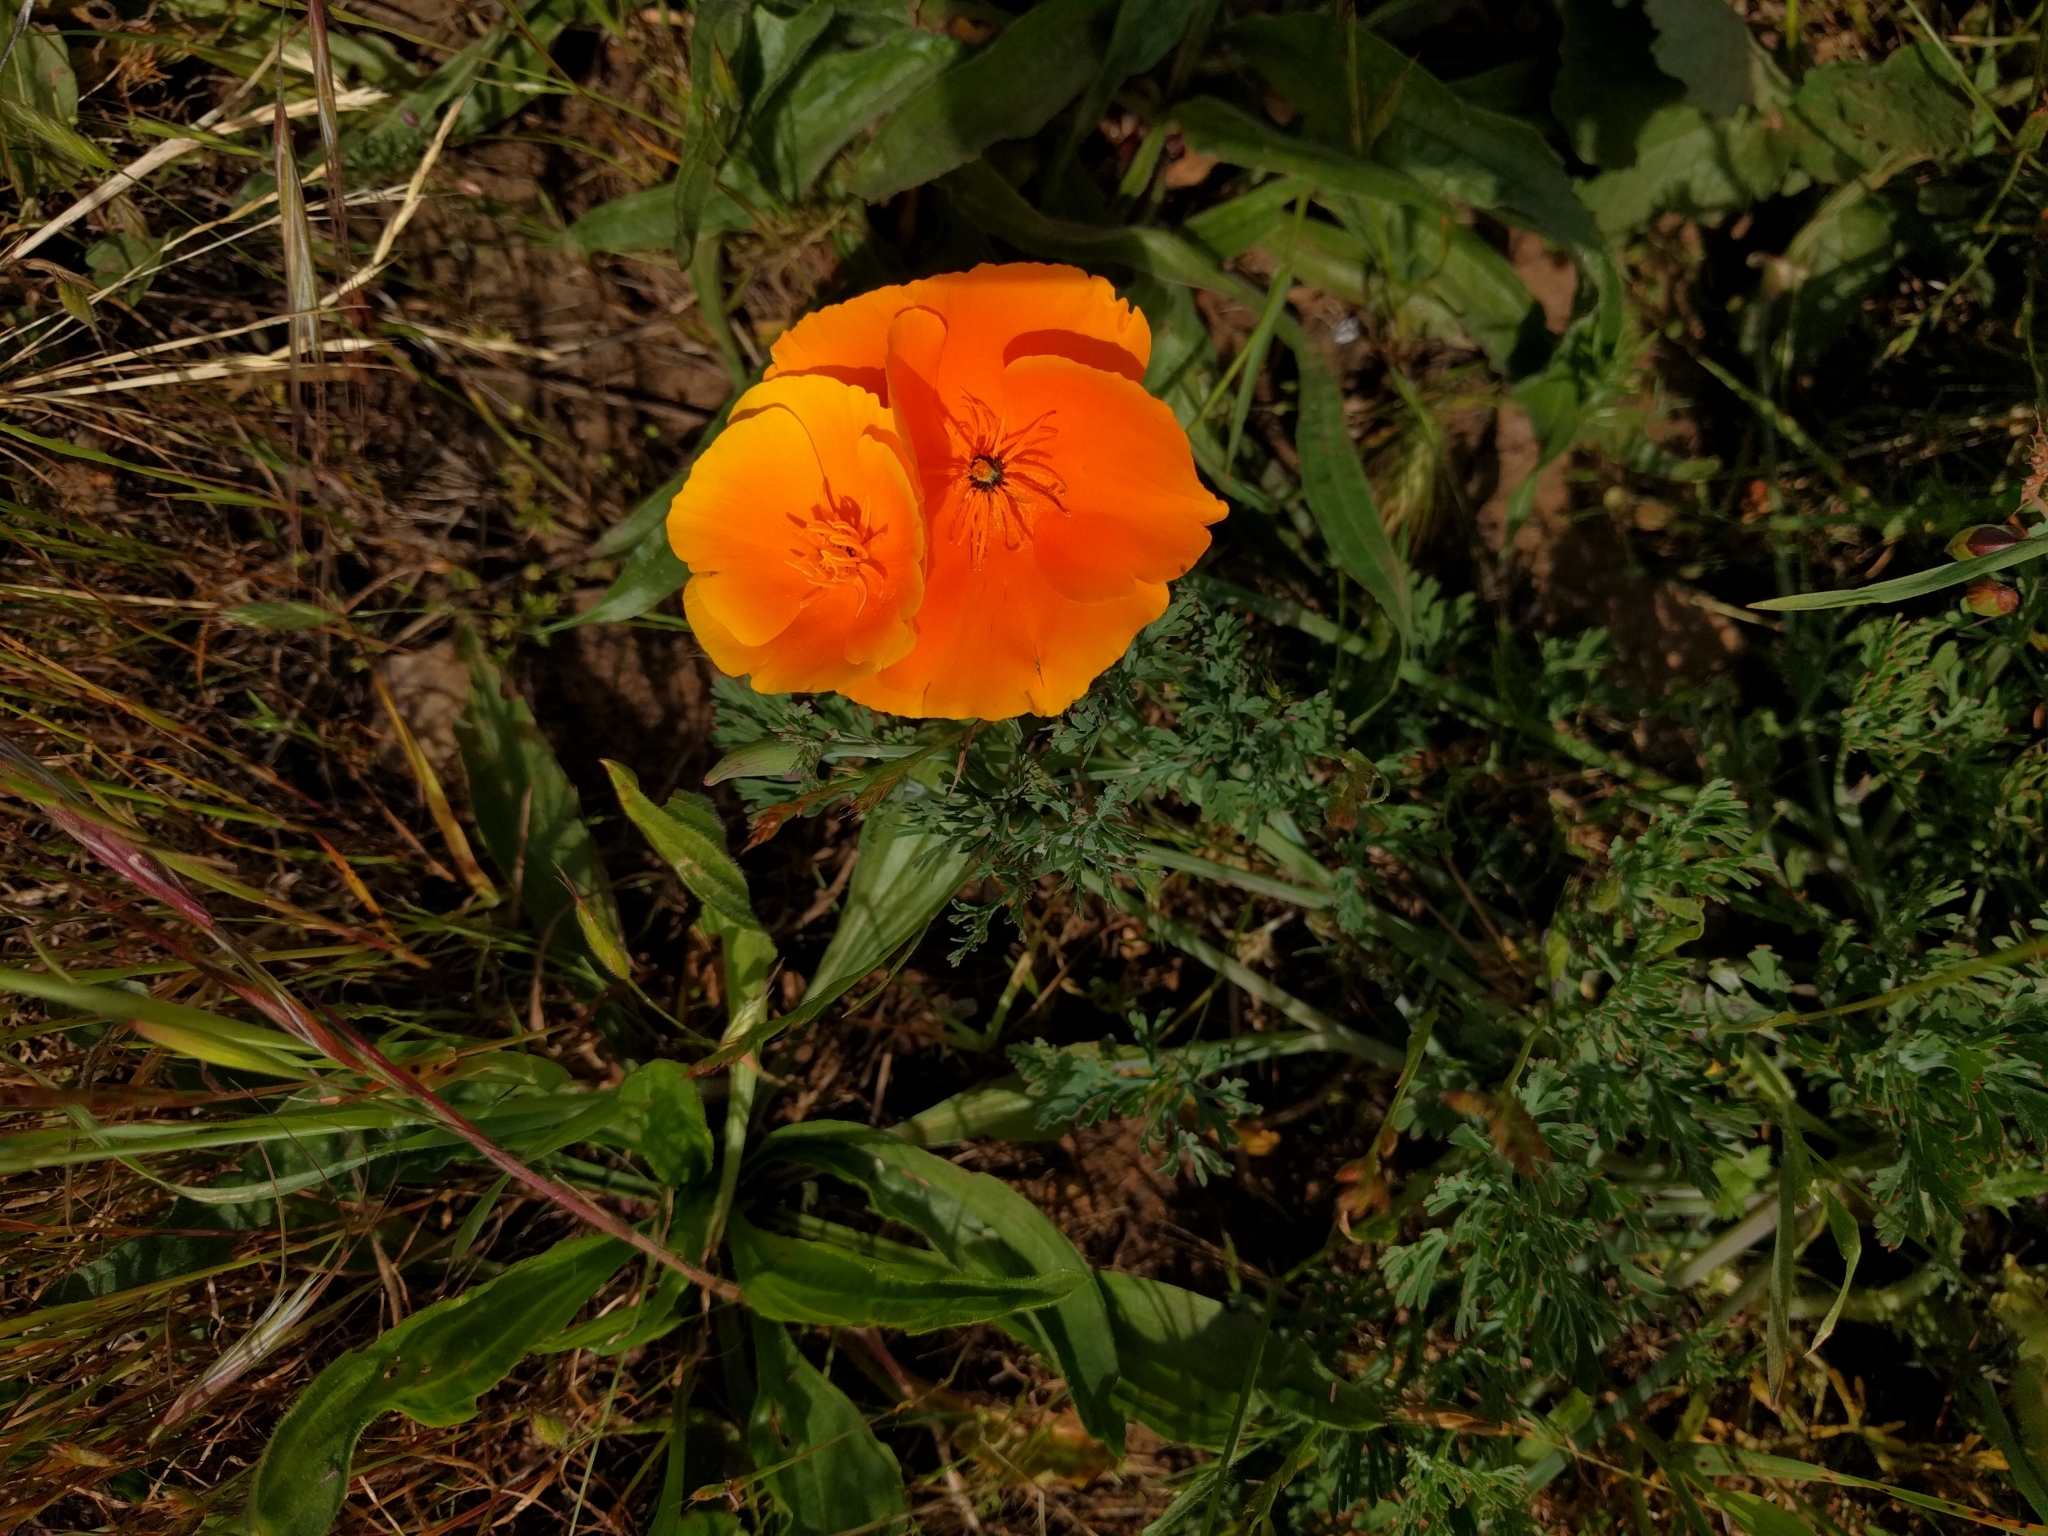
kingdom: Plantae
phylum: Tracheophyta
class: Magnoliopsida
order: Ranunculales
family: Papaveraceae
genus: Eschscholzia
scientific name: Eschscholzia californica
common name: California poppy
